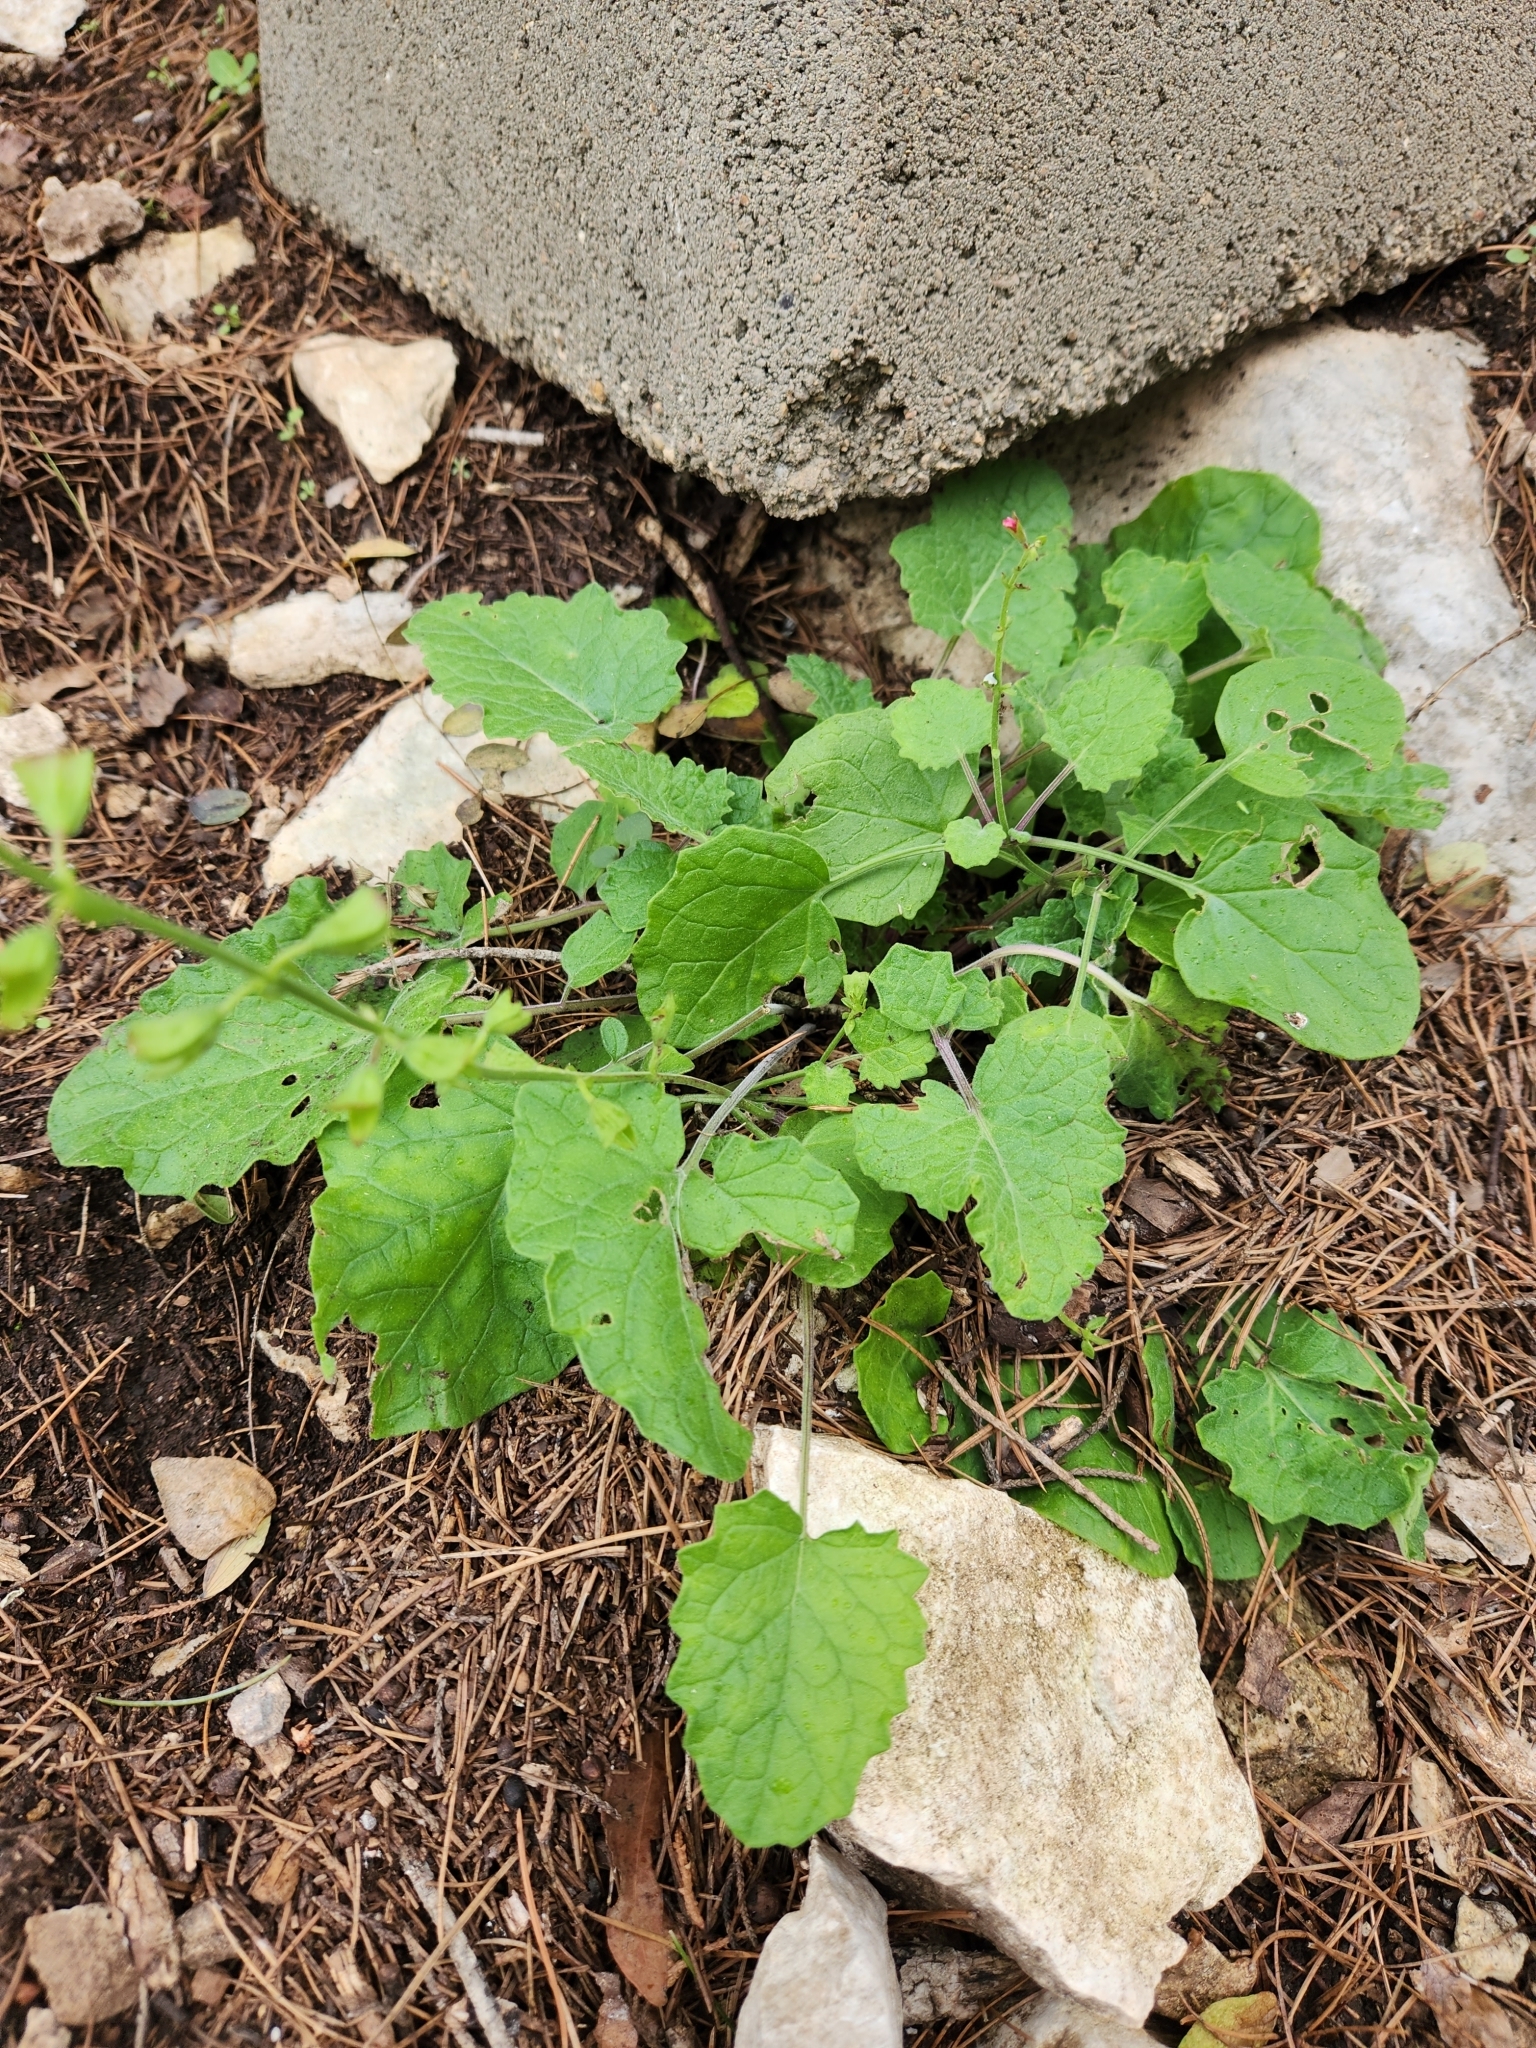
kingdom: Plantae
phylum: Tracheophyta
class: Magnoliopsida
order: Lamiales
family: Lamiaceae
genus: Salvia
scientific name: Salvia roemeriana
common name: Cedar sage
